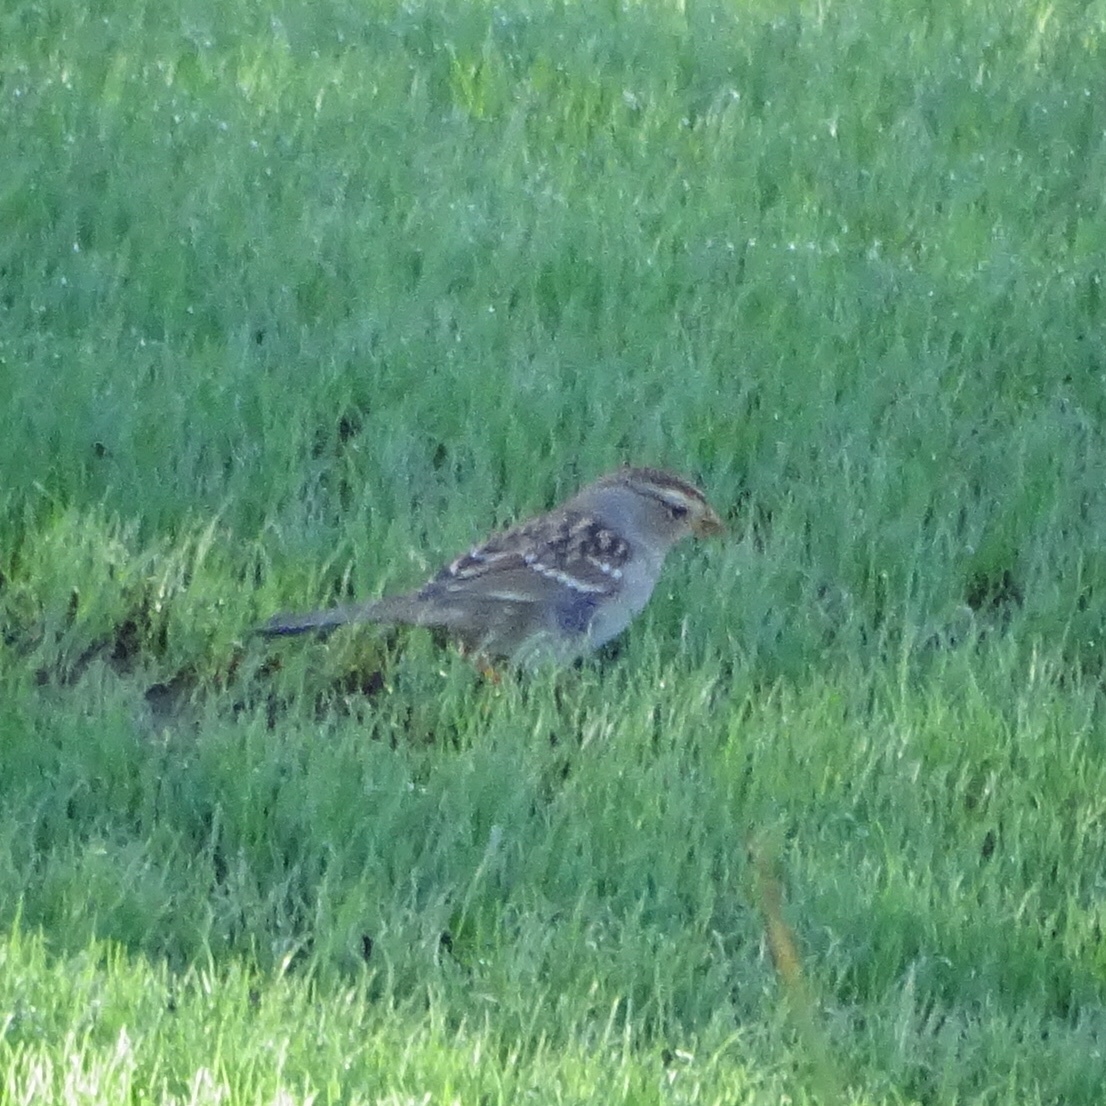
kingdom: Animalia
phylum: Chordata
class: Aves
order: Passeriformes
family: Passerellidae
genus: Zonotrichia
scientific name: Zonotrichia leucophrys
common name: White-crowned sparrow
